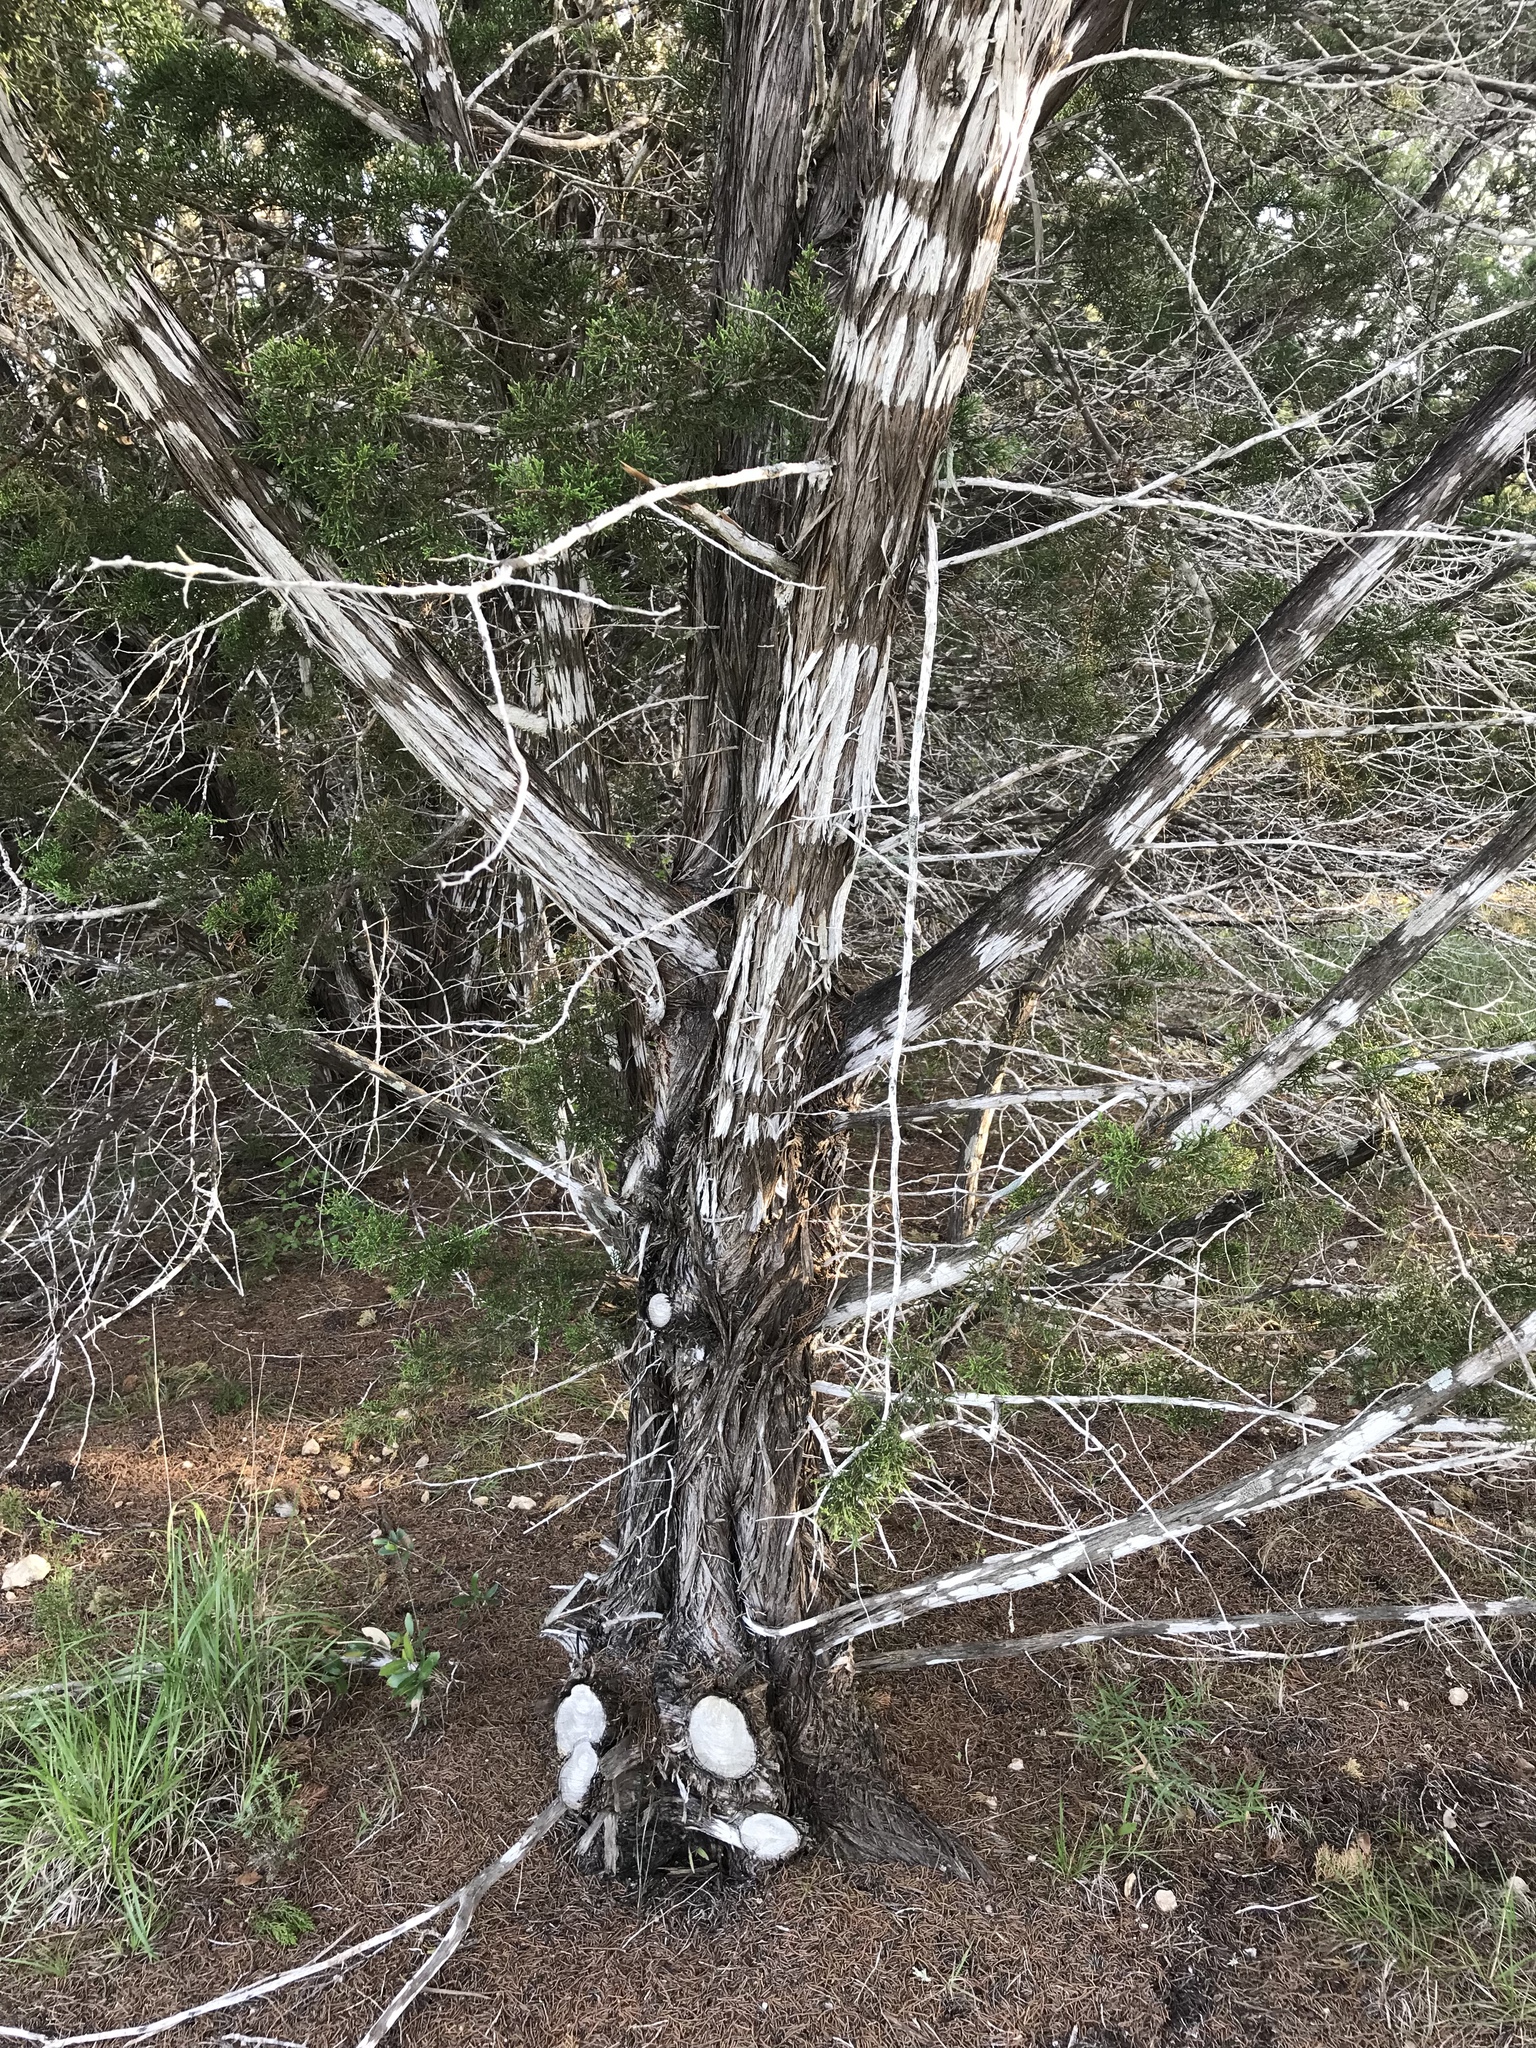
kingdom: Plantae
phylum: Tracheophyta
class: Pinopsida
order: Pinales
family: Cupressaceae
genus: Juniperus
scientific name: Juniperus ashei
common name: Mexican juniper
